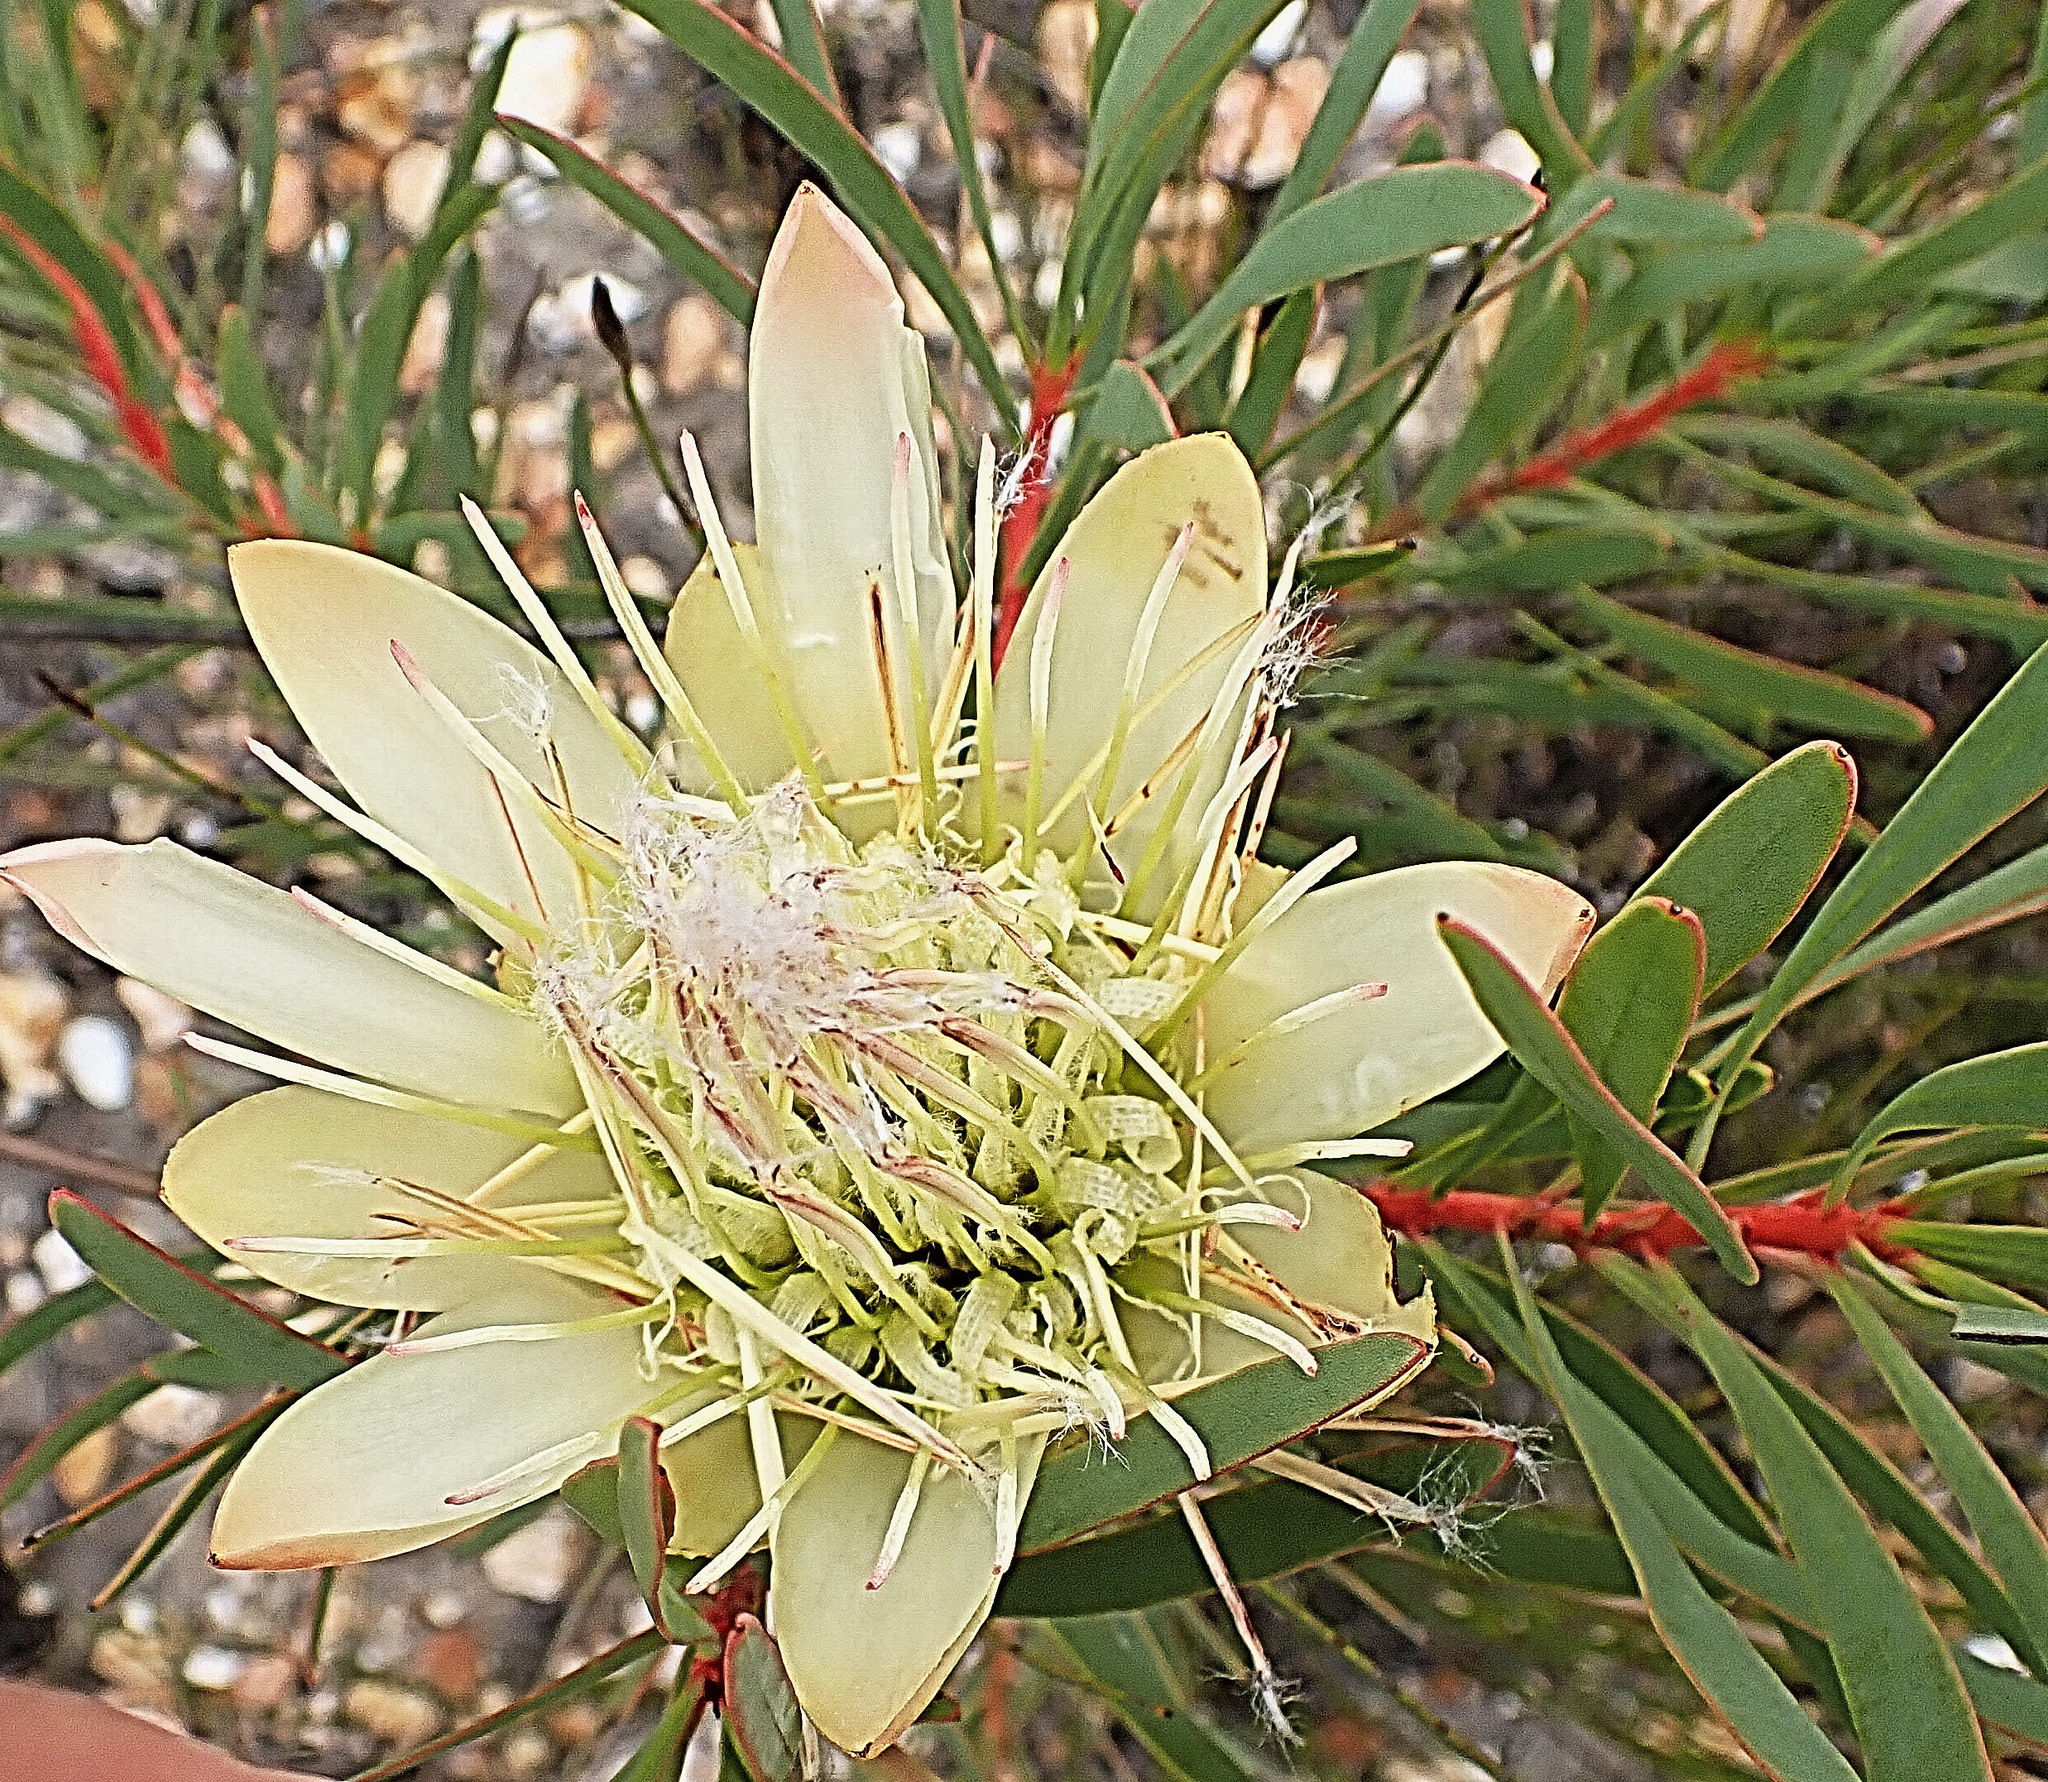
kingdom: Plantae
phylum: Tracheophyta
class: Magnoliopsida
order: Proteales
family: Proteaceae
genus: Protea
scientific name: Protea repens
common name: Sugarbush
